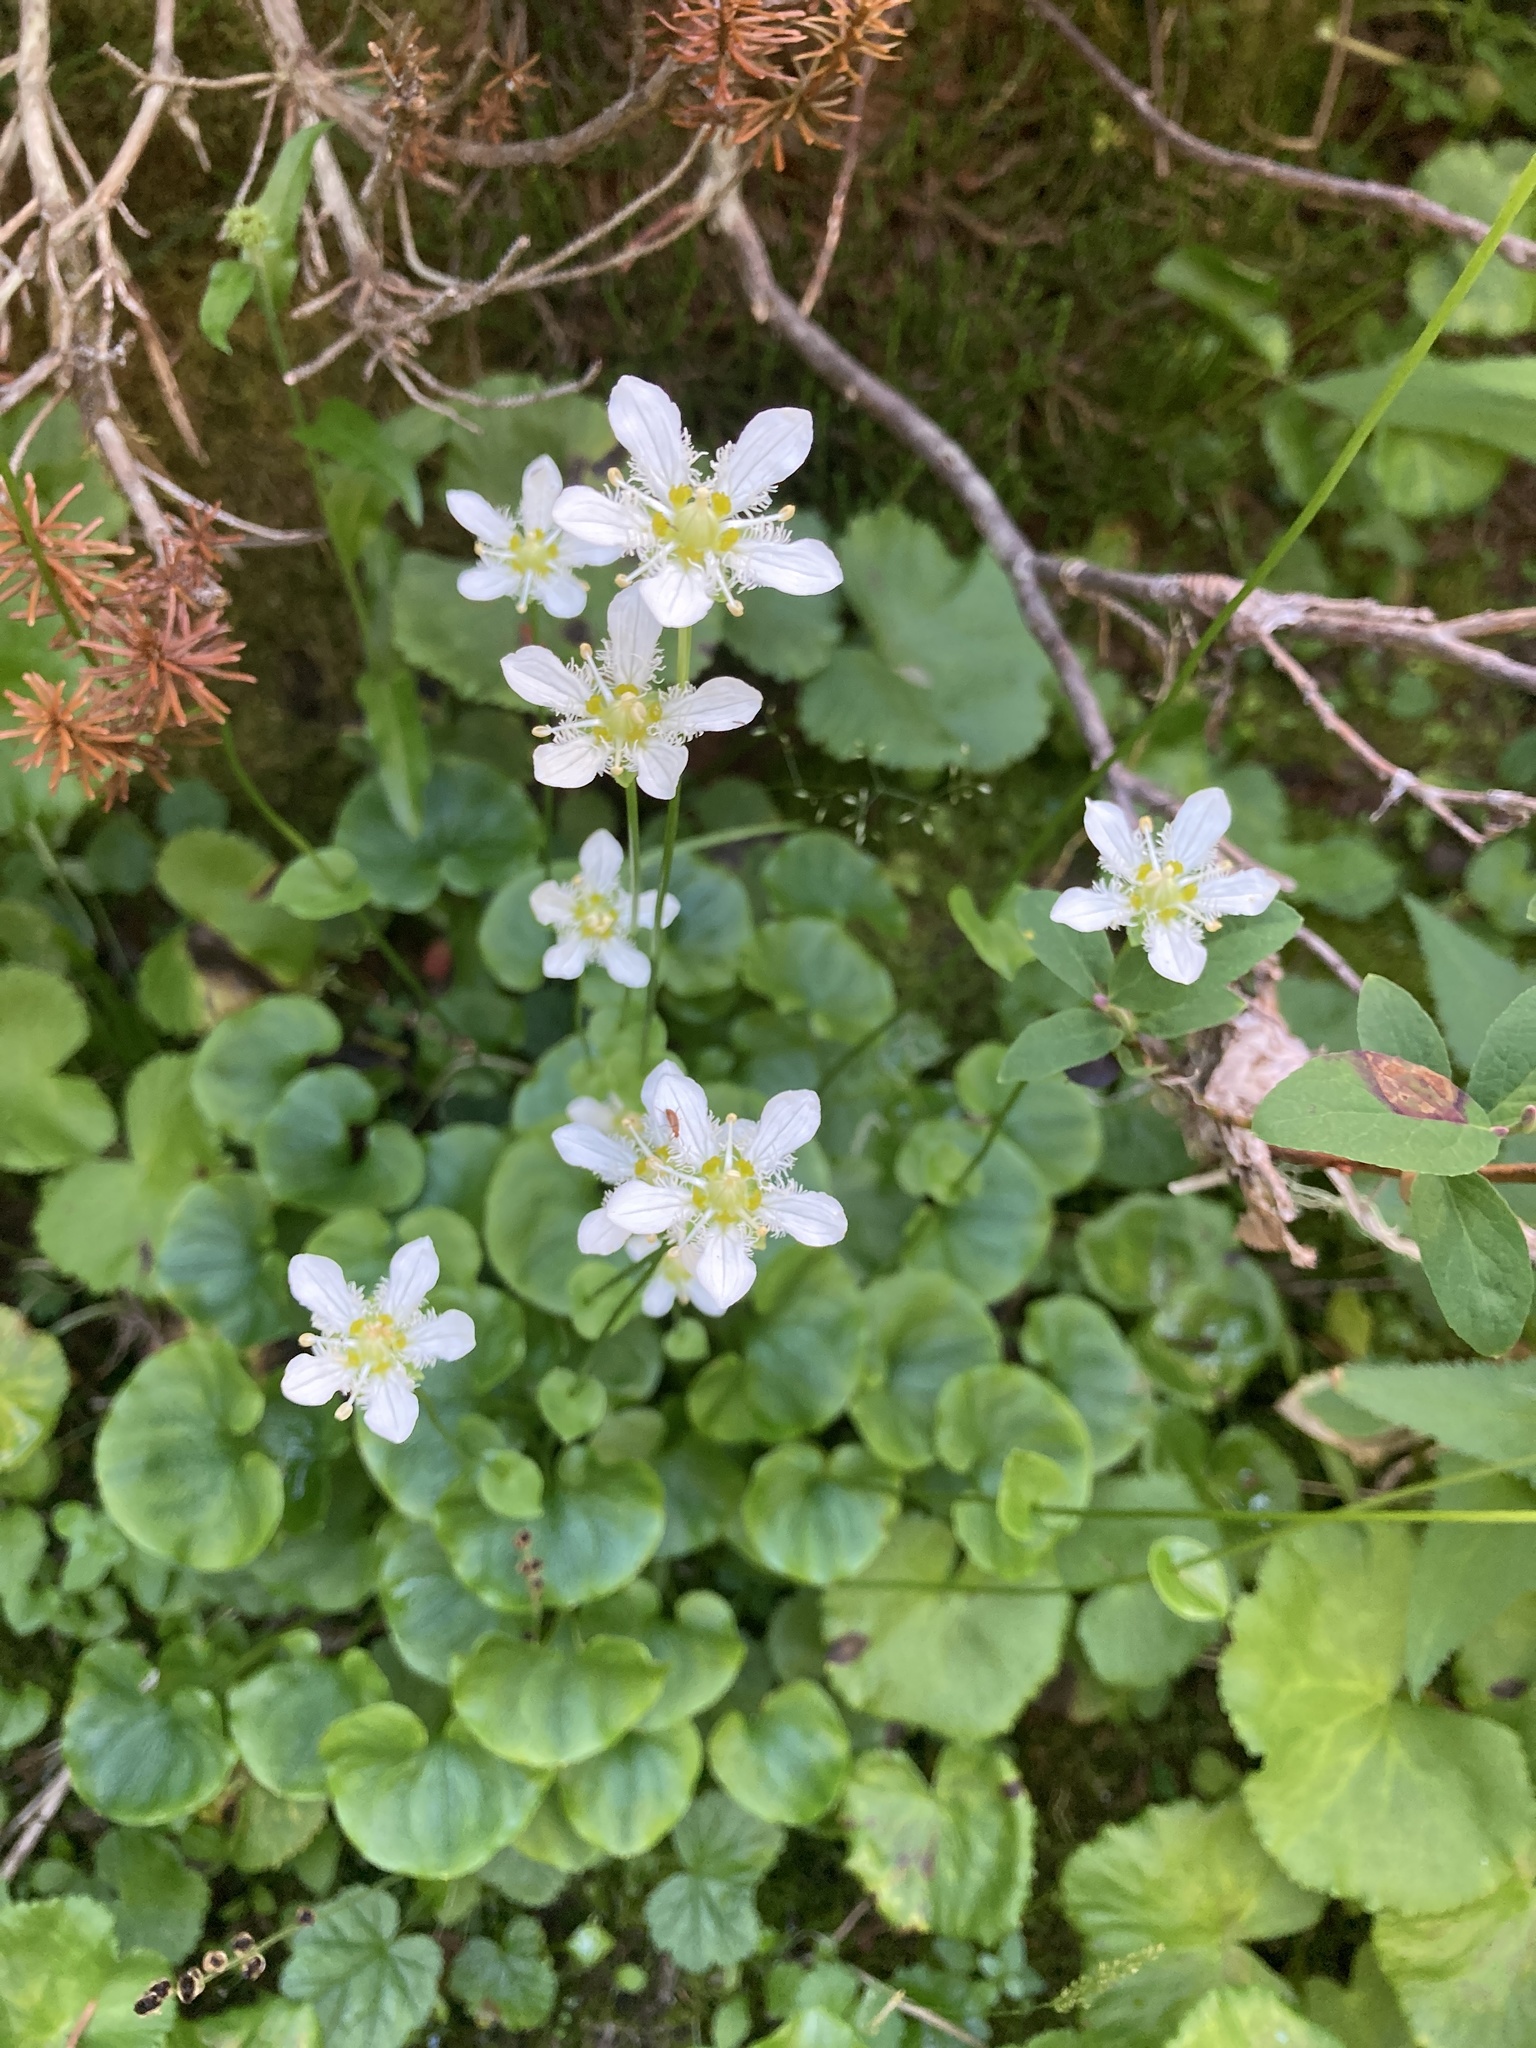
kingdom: Plantae
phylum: Tracheophyta
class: Magnoliopsida
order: Celastrales
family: Parnassiaceae
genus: Parnassia
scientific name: Parnassia fimbriata
